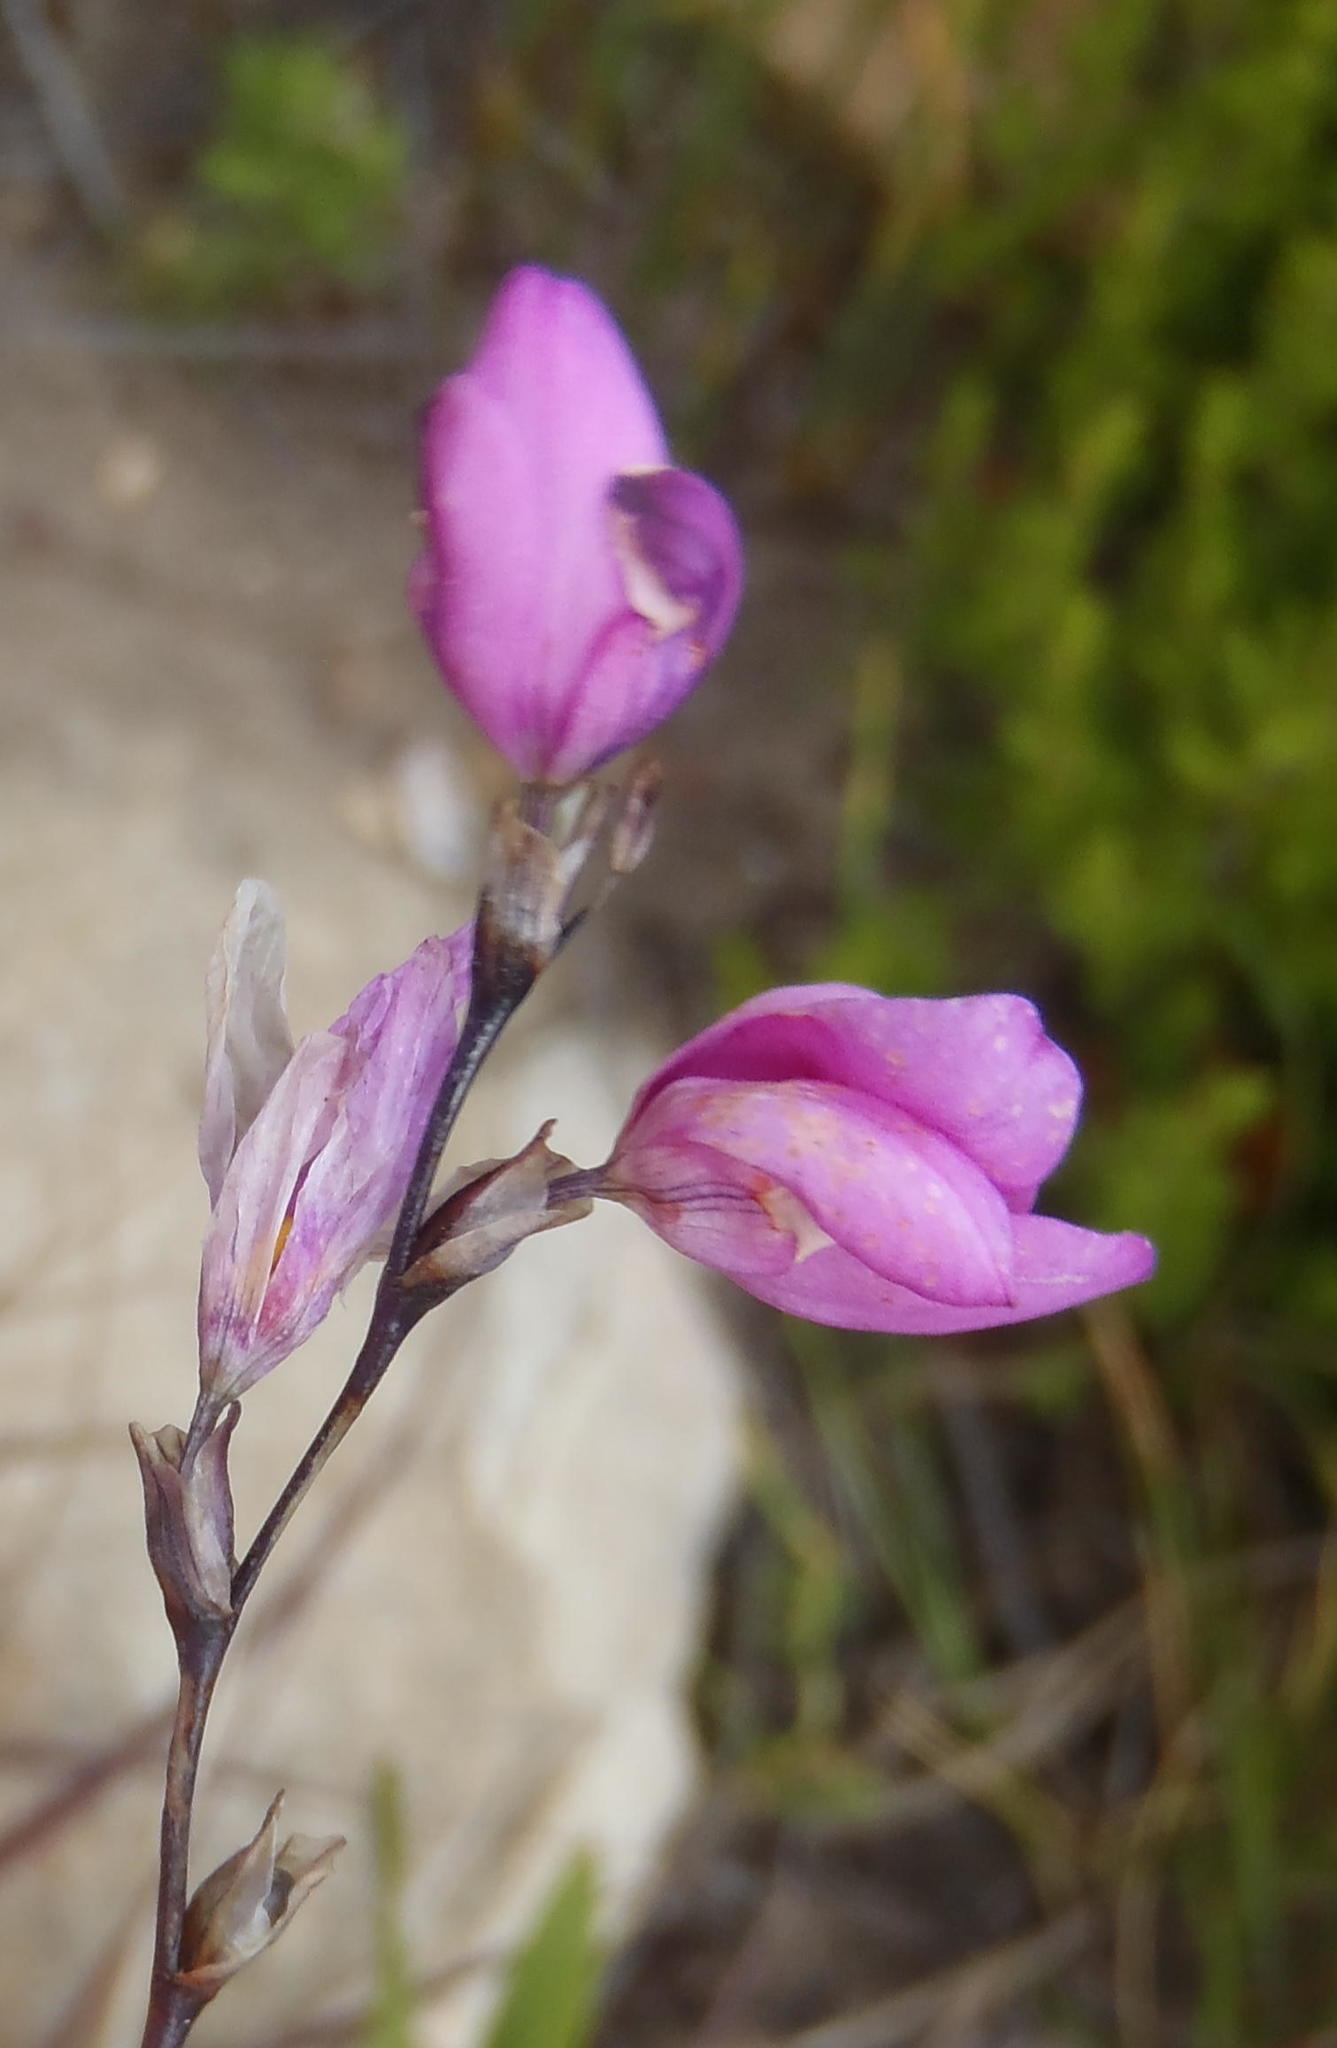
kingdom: Plantae
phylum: Tracheophyta
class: Liliopsida
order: Asparagales
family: Iridaceae
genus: Ixia
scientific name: Ixia confusa
